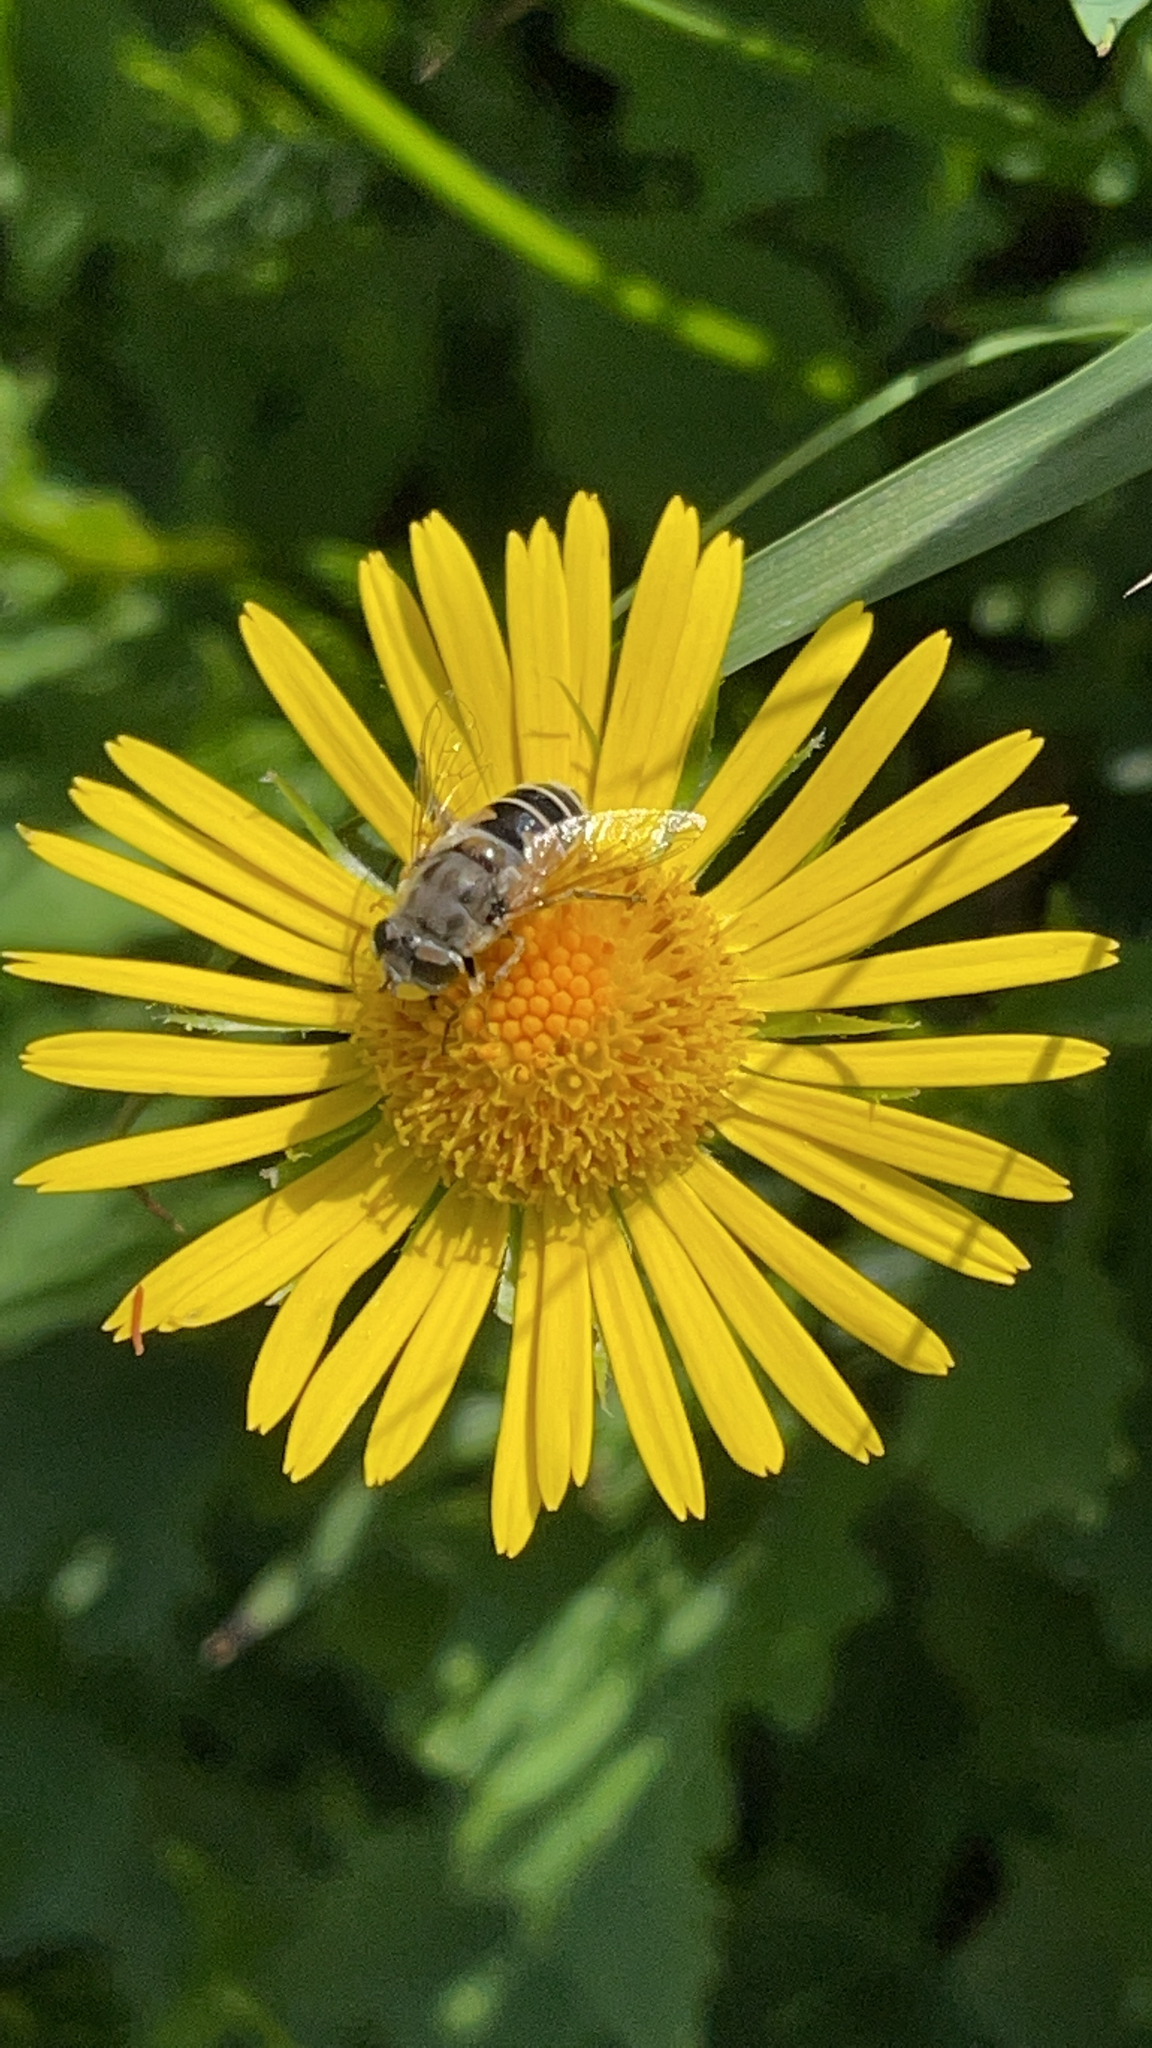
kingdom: Animalia
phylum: Arthropoda
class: Insecta
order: Diptera
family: Syrphidae
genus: Eristalis
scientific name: Eristalis arbustorum
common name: Hover fly
